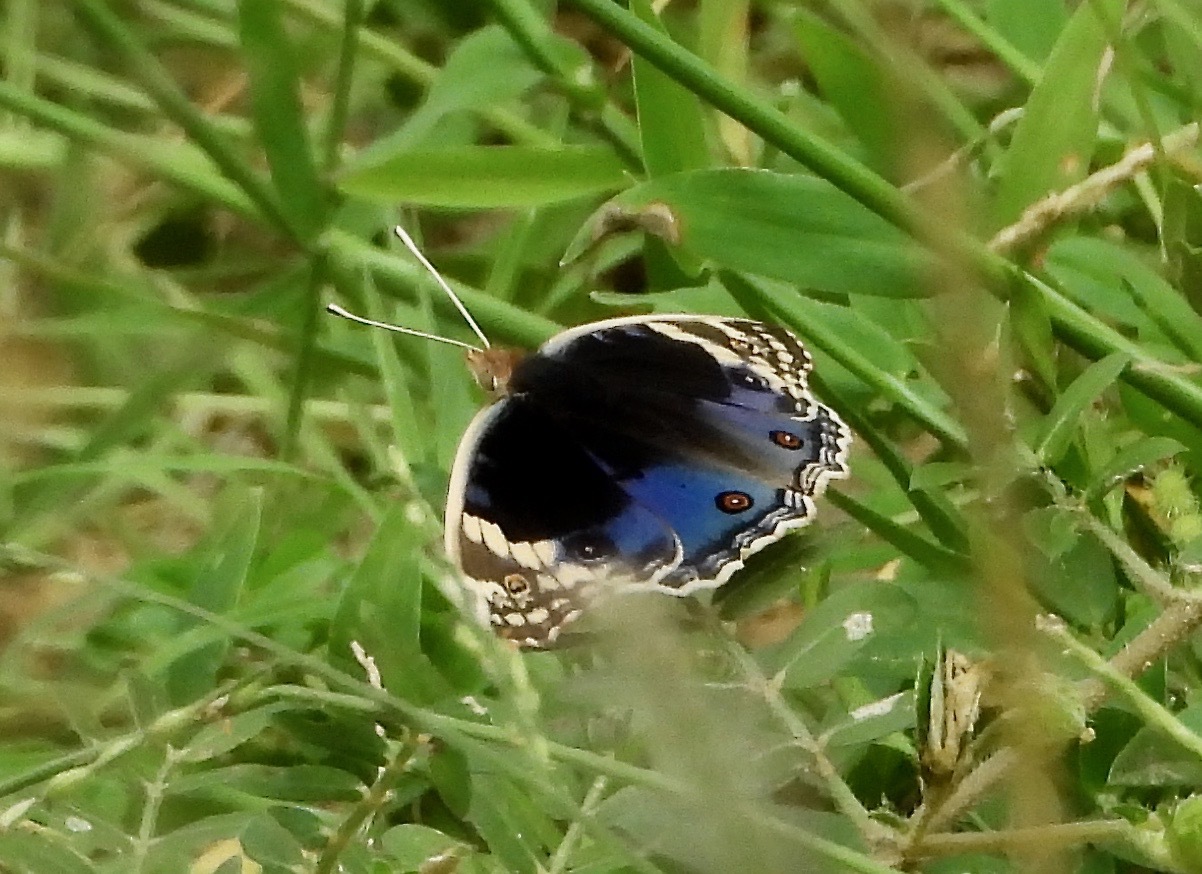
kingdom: Animalia
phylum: Arthropoda
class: Insecta
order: Lepidoptera
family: Nymphalidae
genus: Junonia
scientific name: Junonia orithya
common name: Blue pansy
